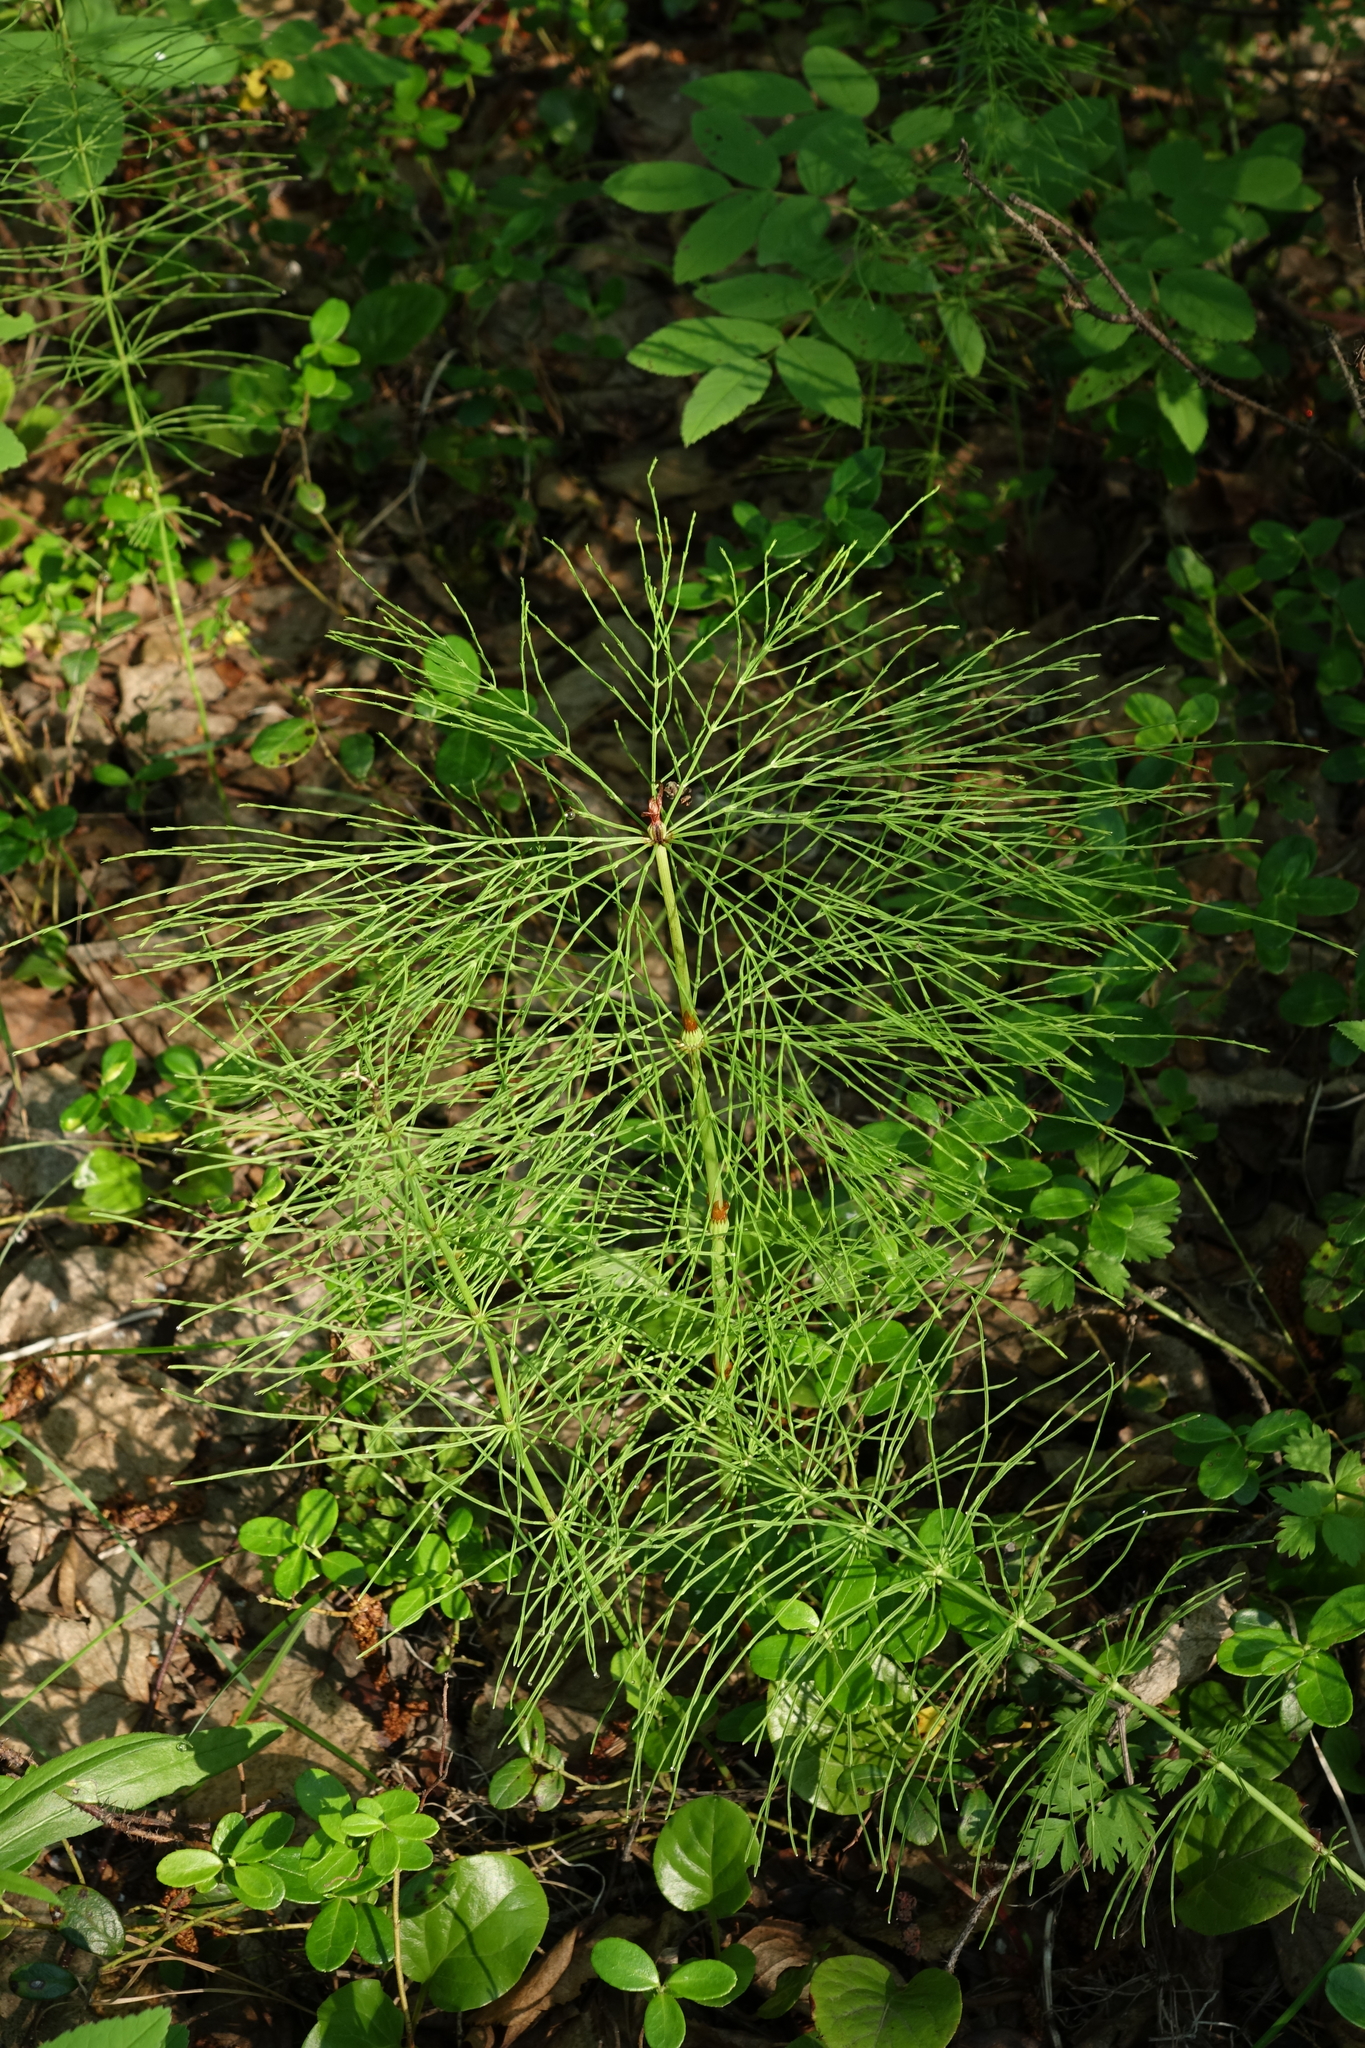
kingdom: Plantae
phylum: Tracheophyta
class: Polypodiopsida
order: Equisetales
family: Equisetaceae
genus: Equisetum
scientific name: Equisetum sylvaticum
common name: Wood horsetail
